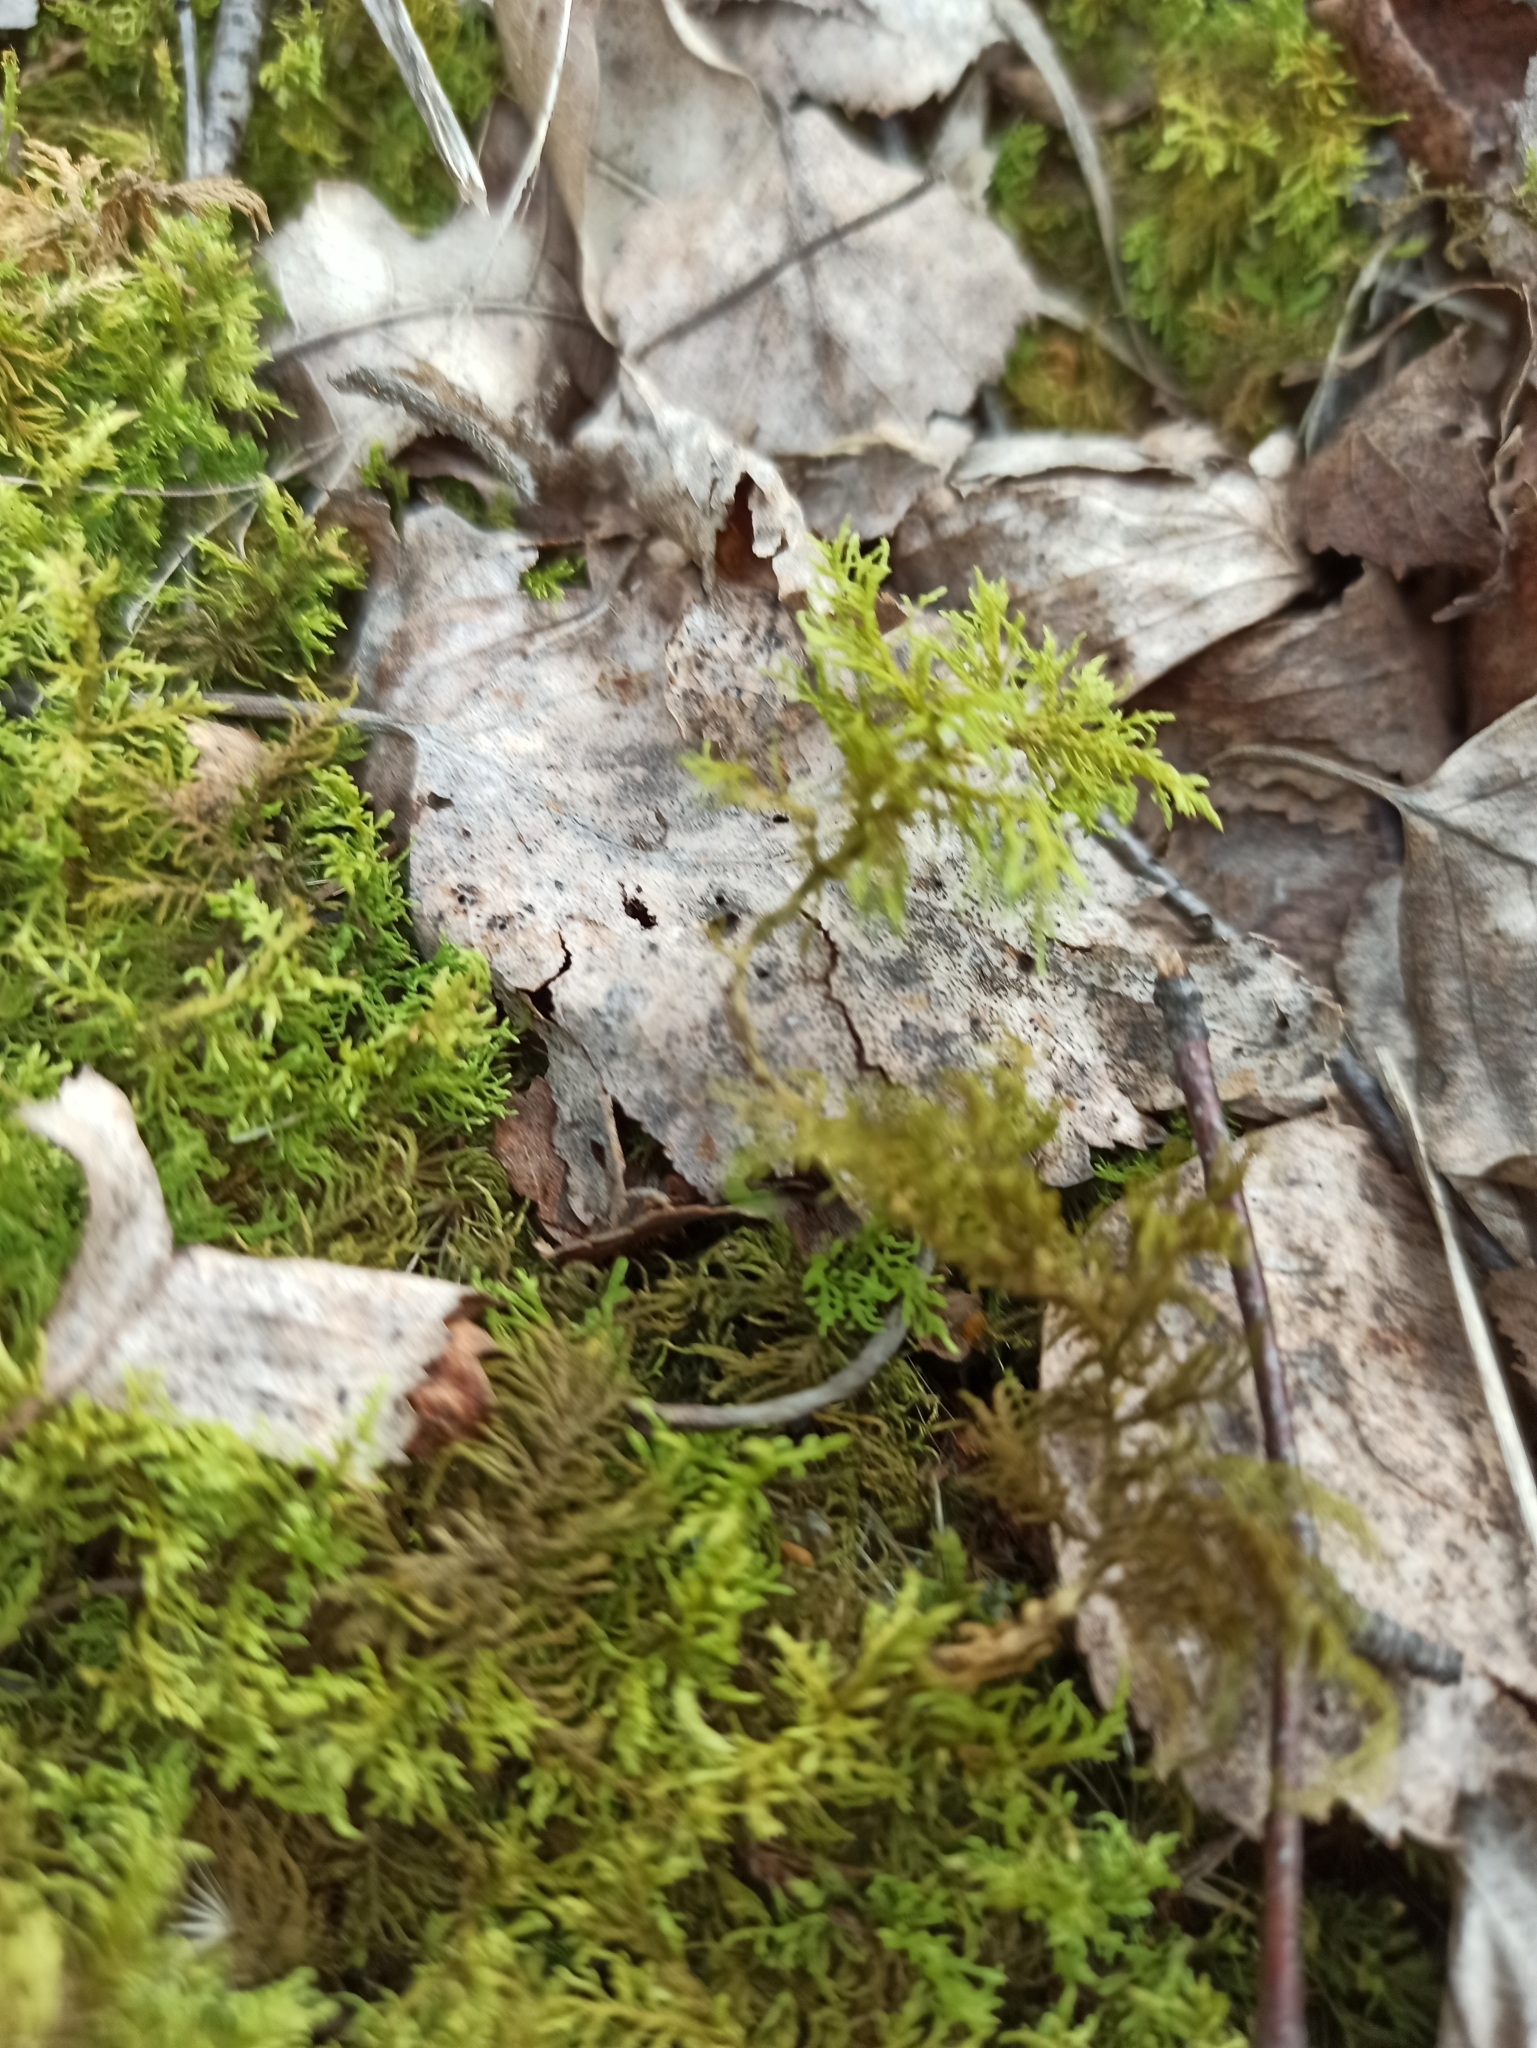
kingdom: Plantae
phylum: Bryophyta
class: Bryopsida
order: Hypnales
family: Hylocomiaceae
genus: Hylocomium
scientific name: Hylocomium splendens
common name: Stairstep moss
